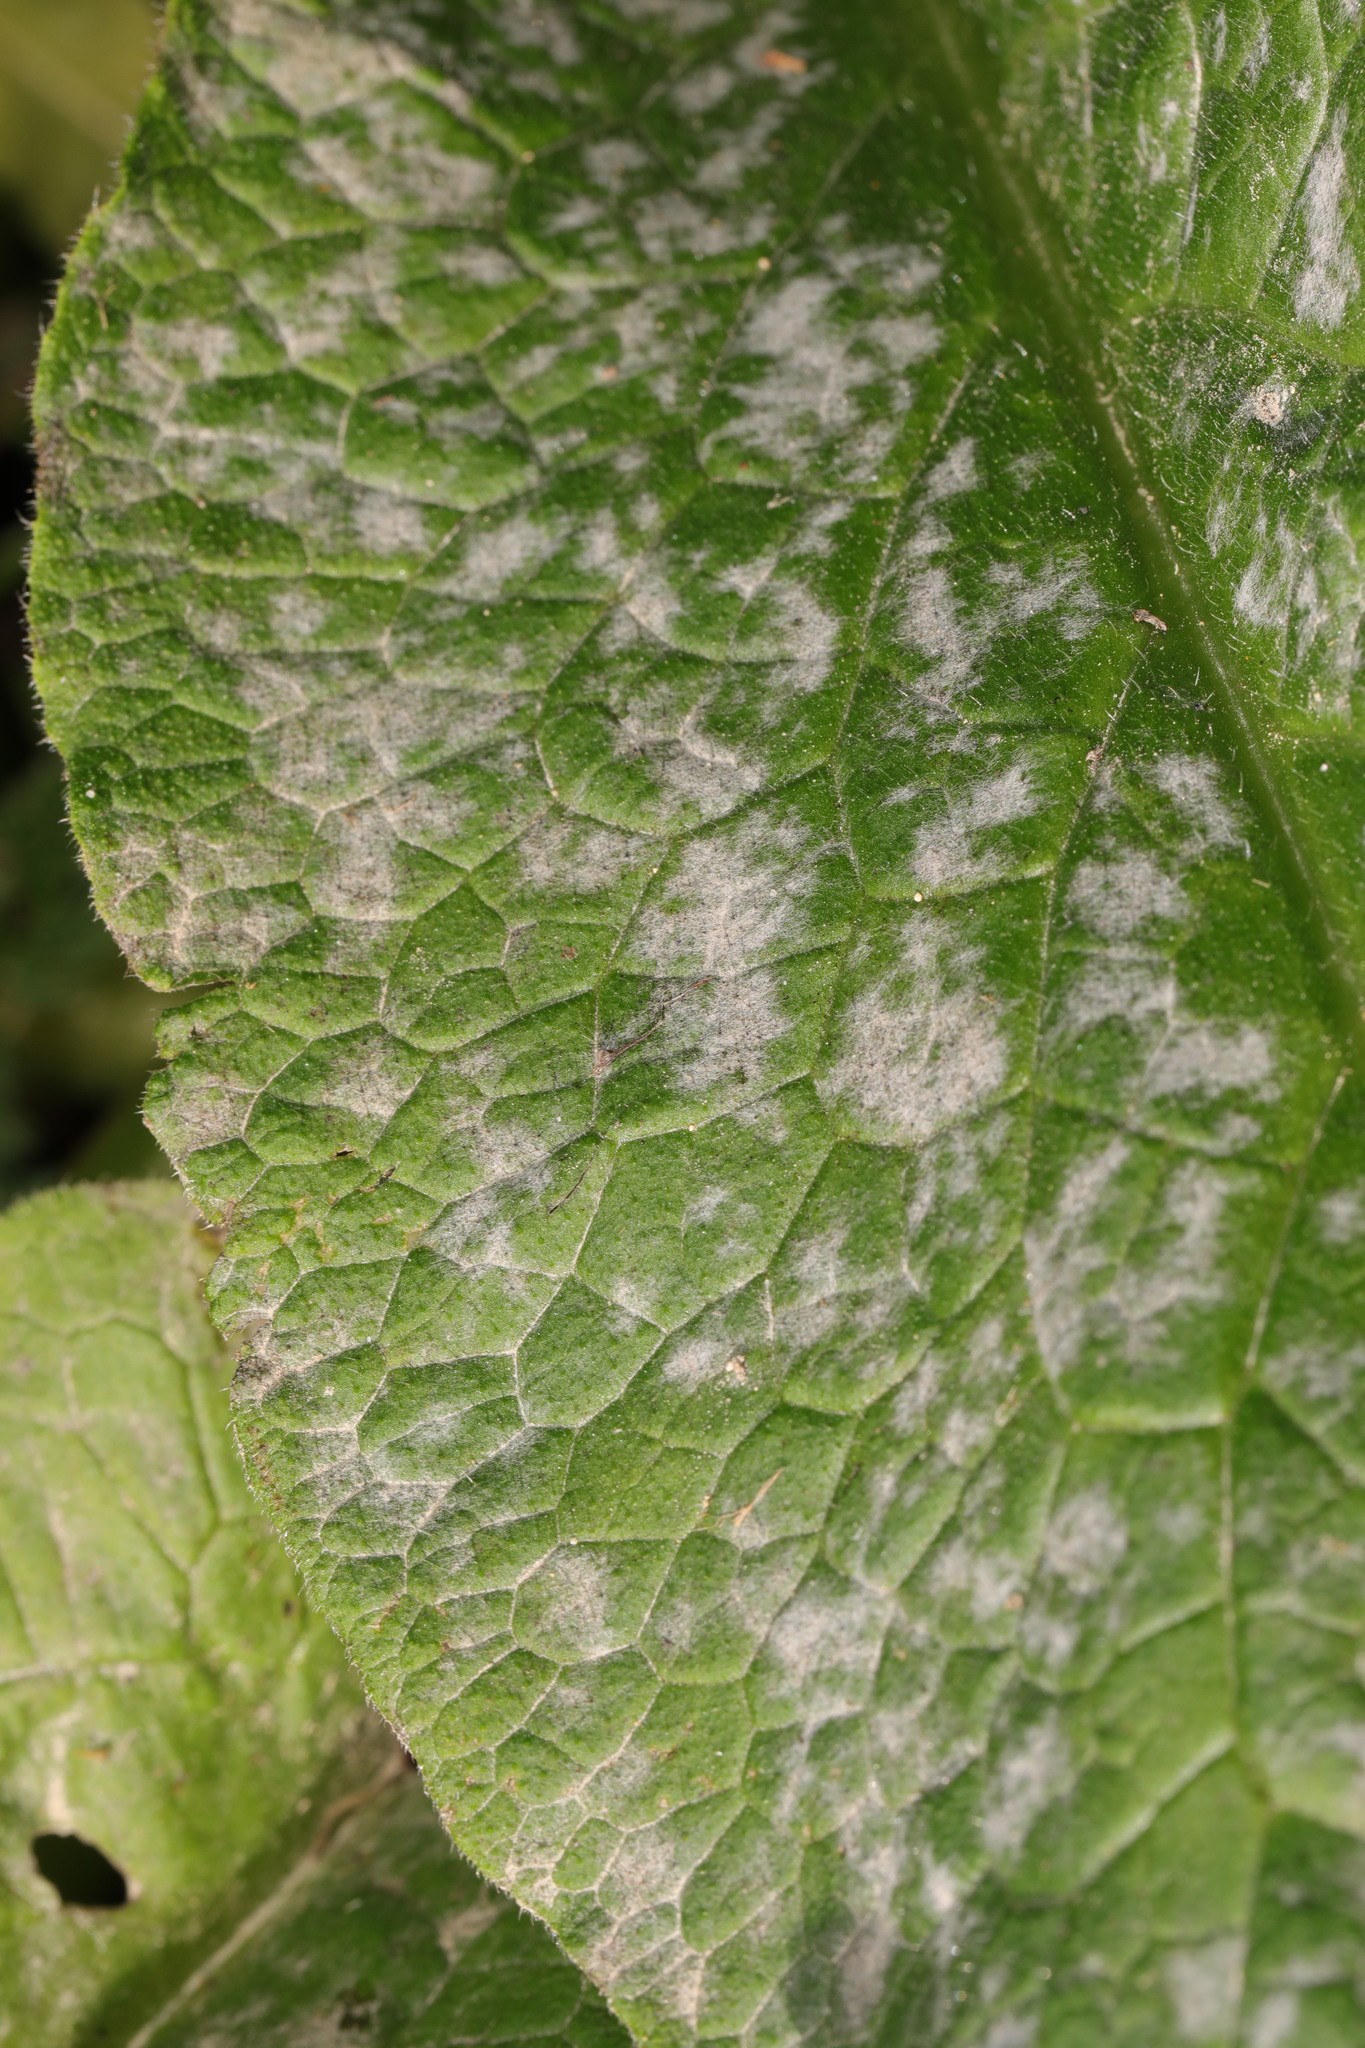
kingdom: Fungi
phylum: Ascomycota
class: Leotiomycetes
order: Helotiales
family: Erysiphaceae
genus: Golovinomyces
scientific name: Golovinomyces asperifoliorum
